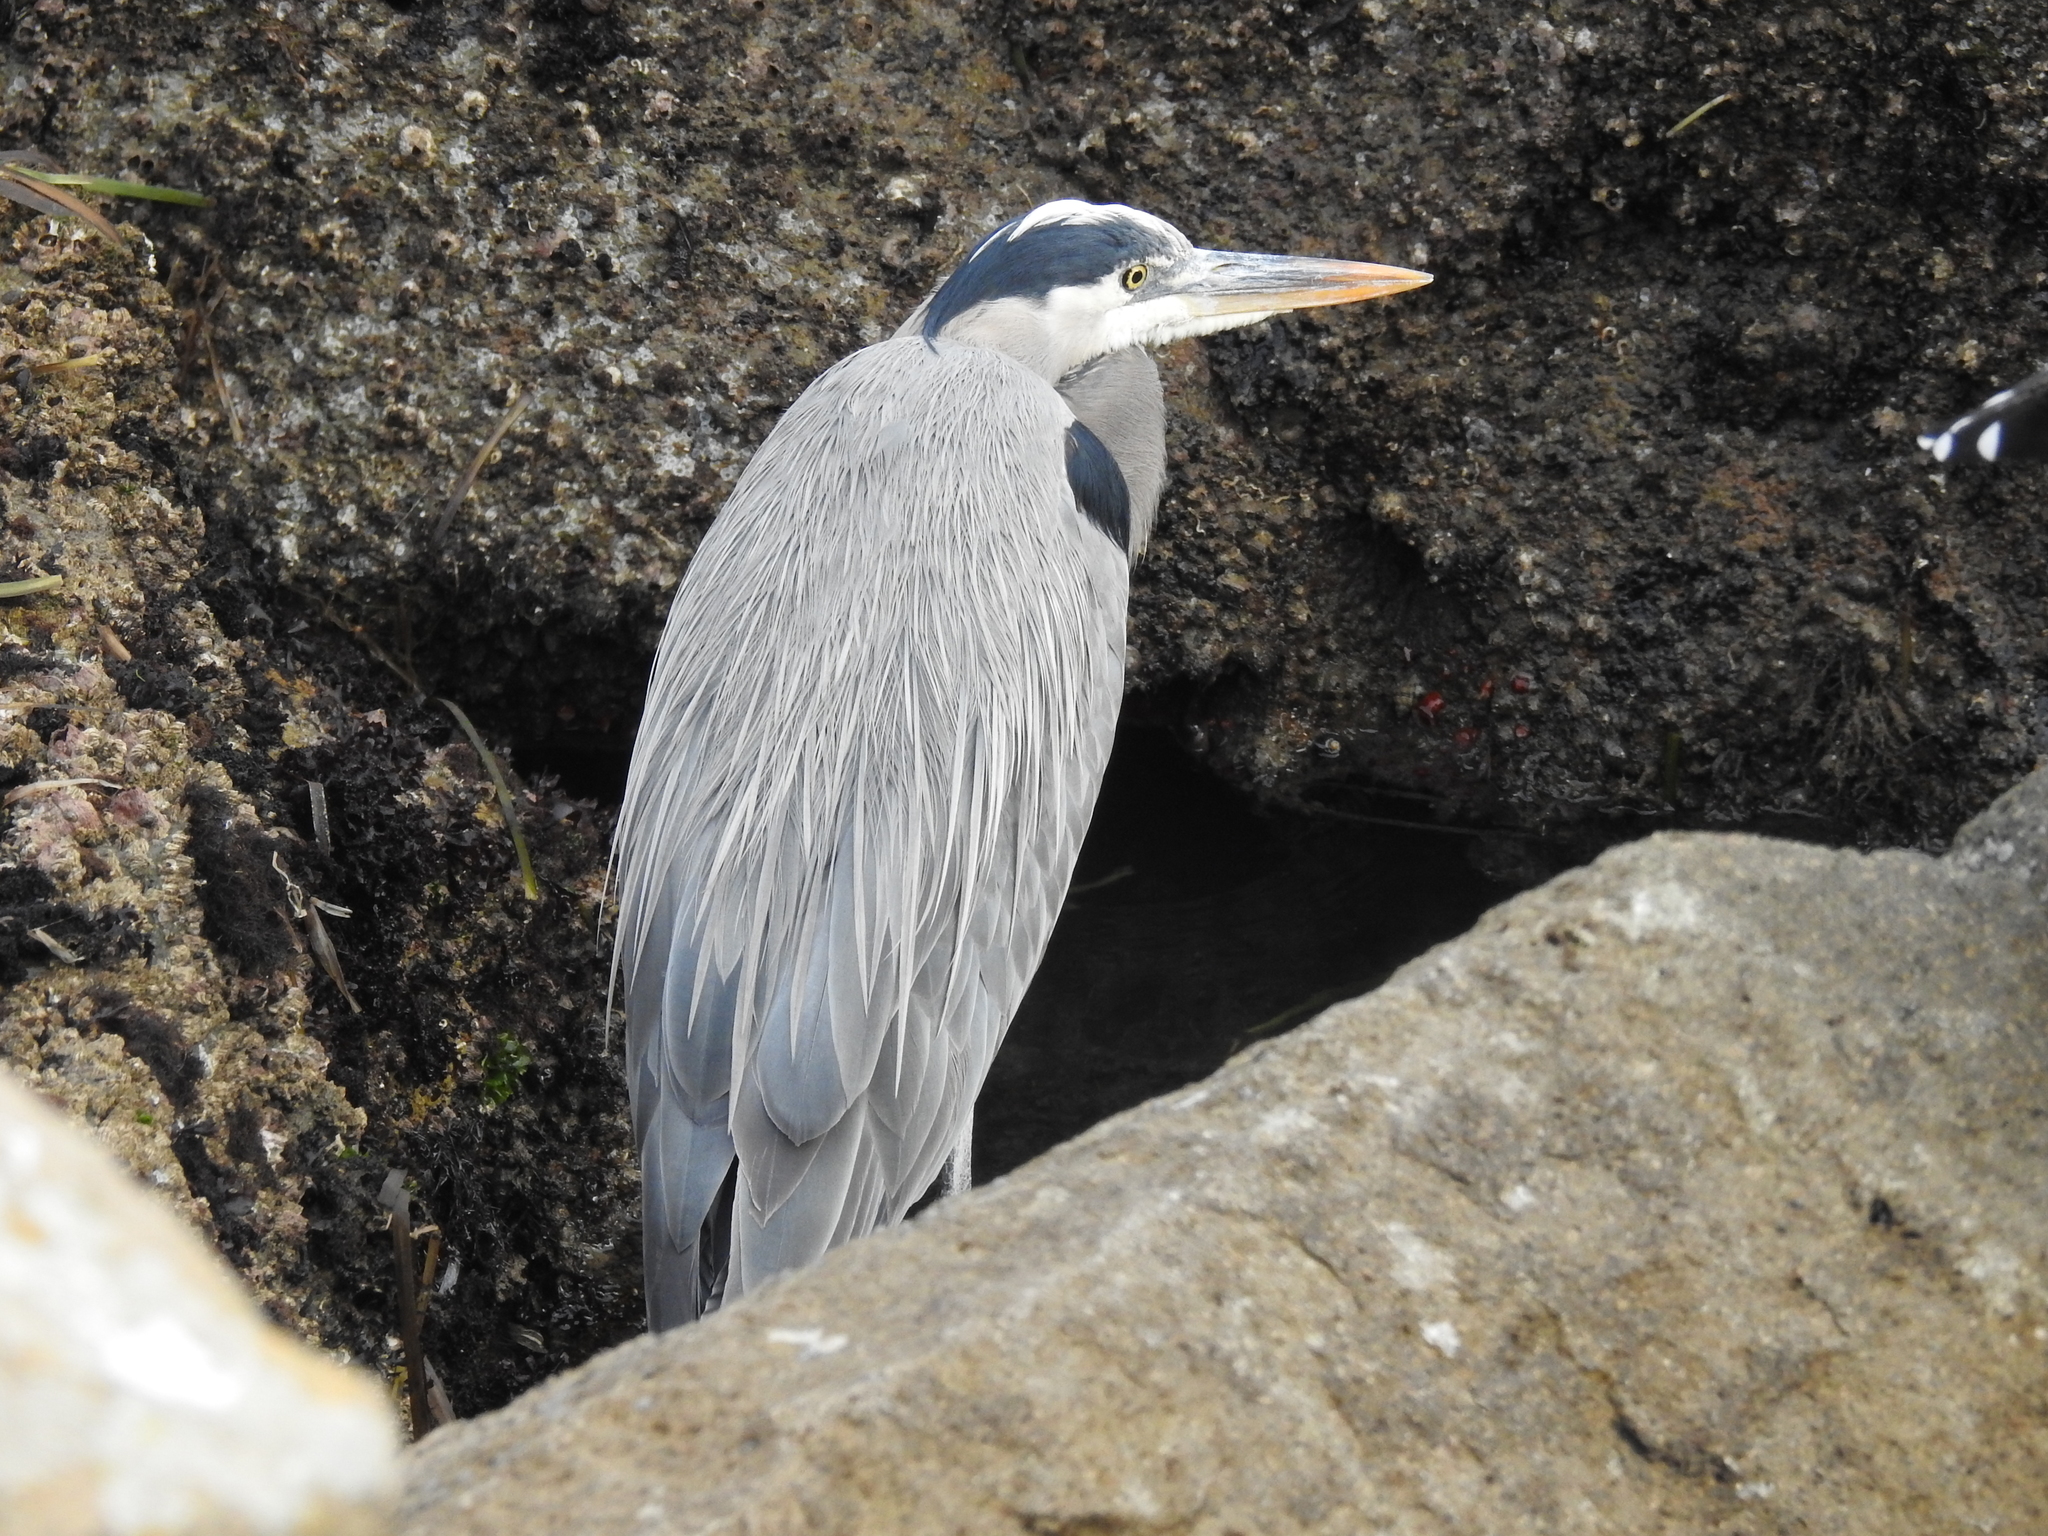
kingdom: Animalia
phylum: Chordata
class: Aves
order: Pelecaniformes
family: Ardeidae
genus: Ardea
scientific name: Ardea herodias
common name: Great blue heron
